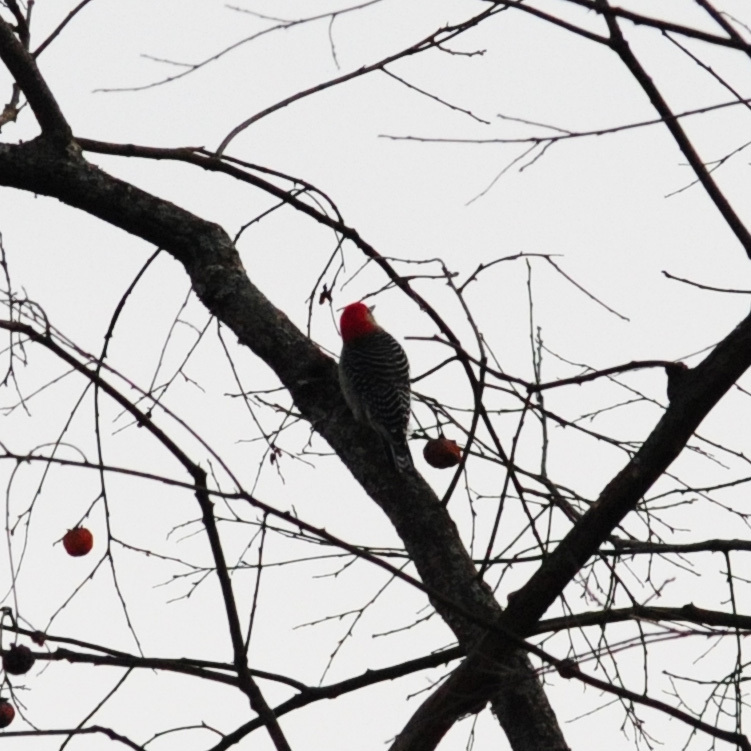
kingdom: Animalia
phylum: Chordata
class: Aves
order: Piciformes
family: Picidae
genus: Melanerpes
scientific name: Melanerpes carolinus
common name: Red-bellied woodpecker
